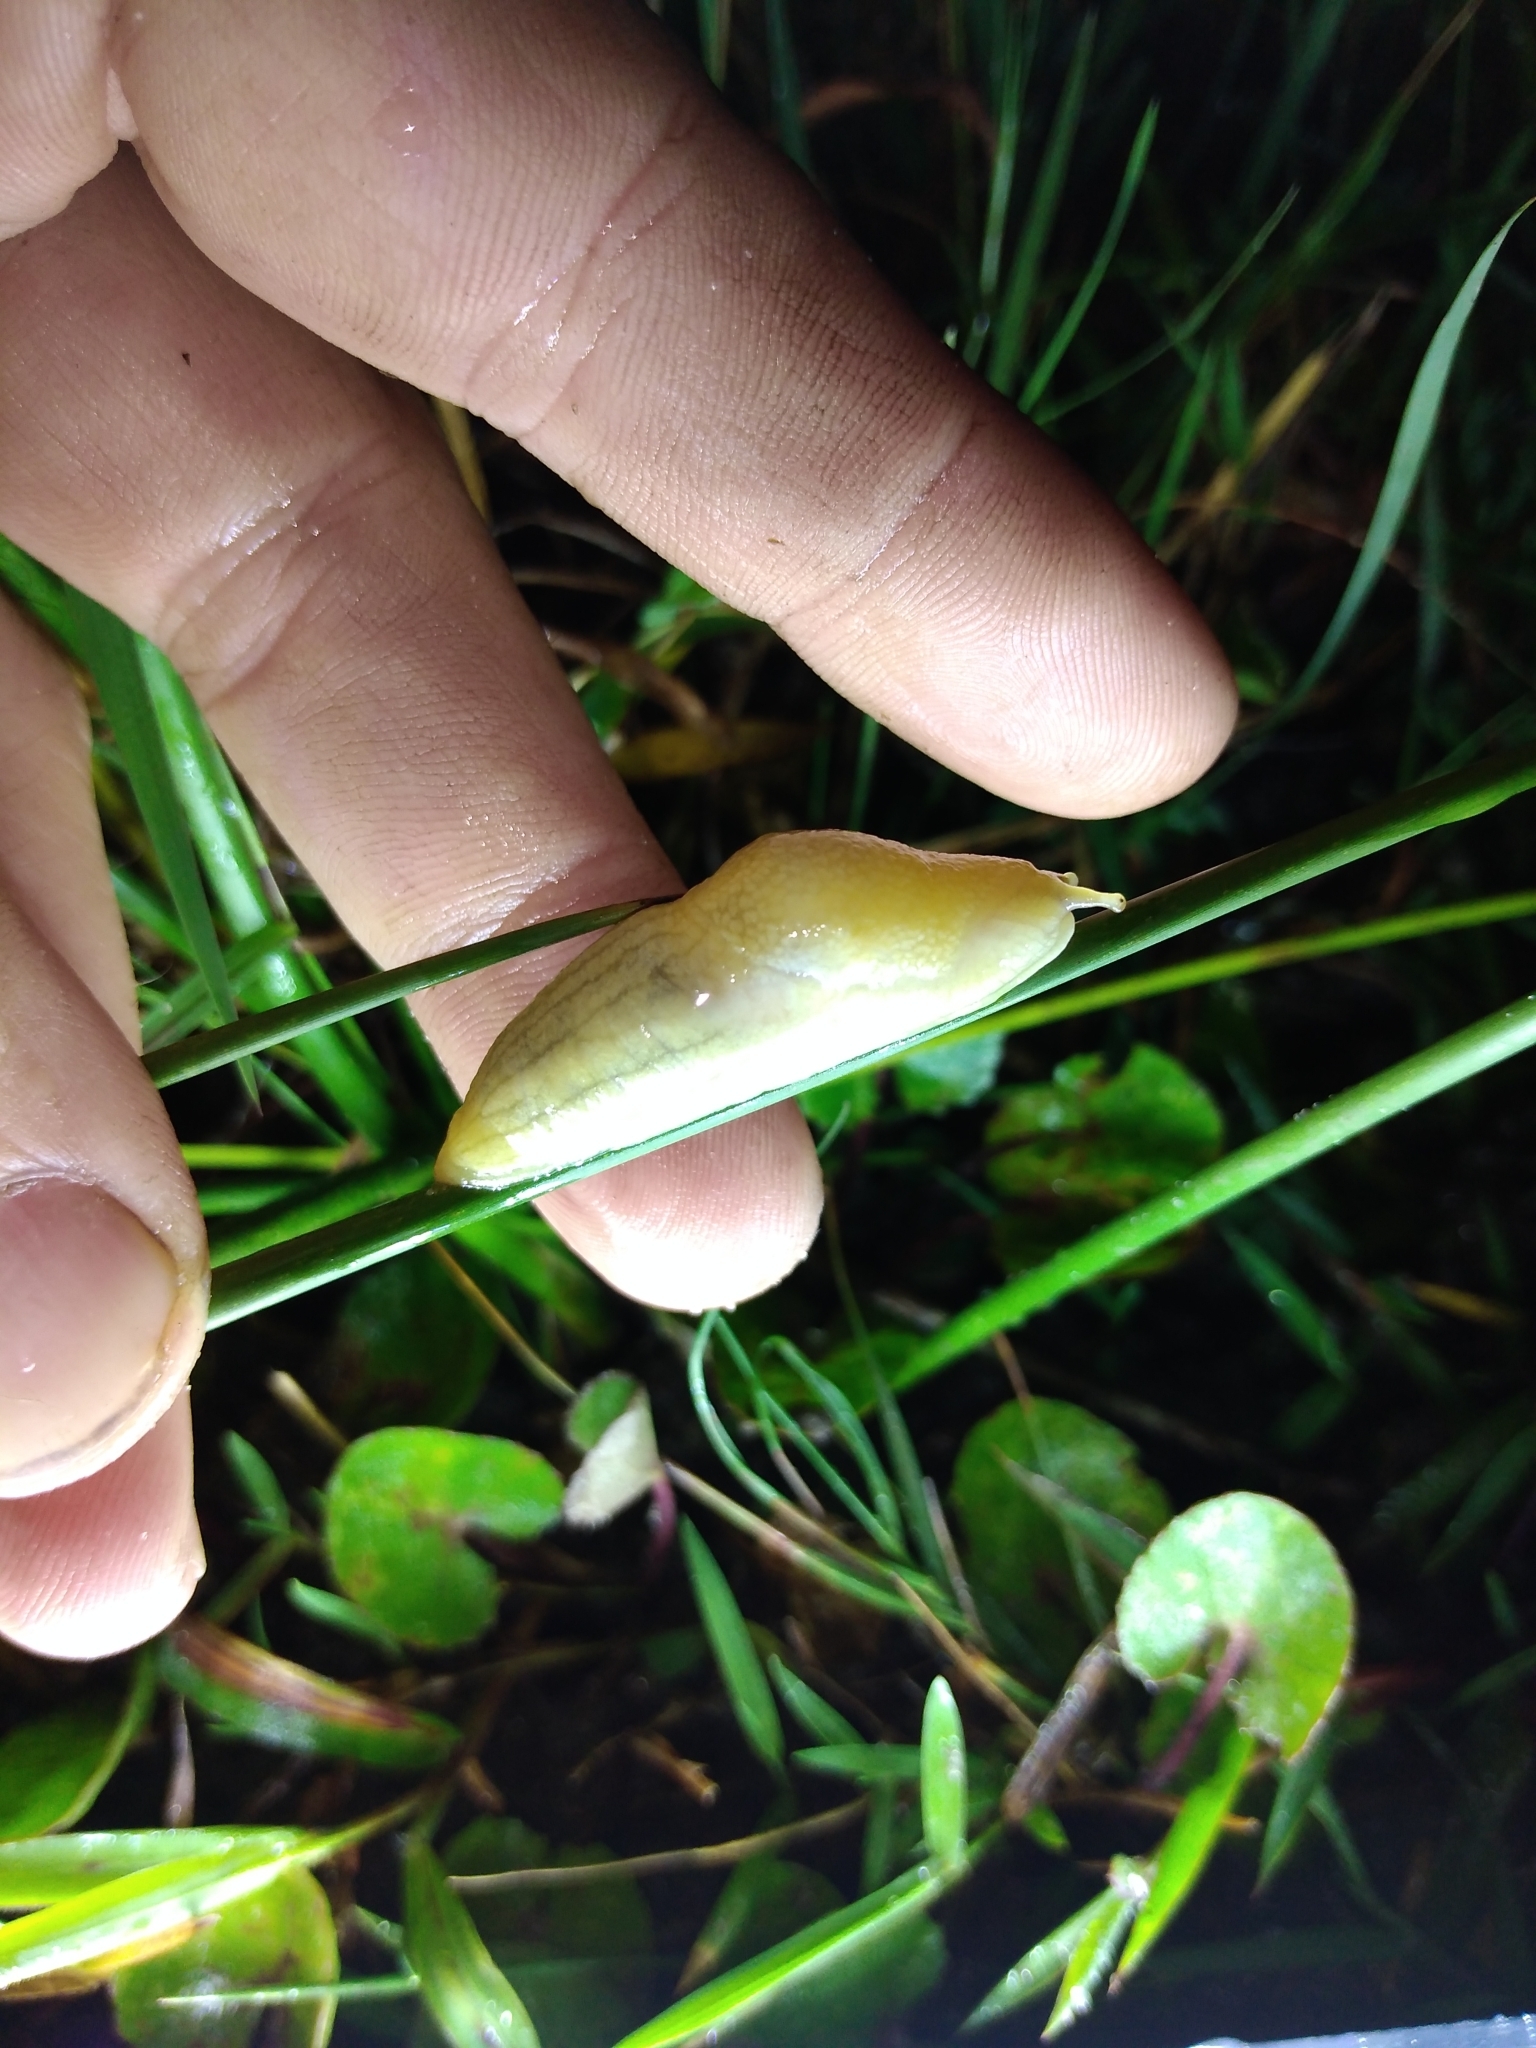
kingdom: Animalia
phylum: Mollusca
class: Gastropoda
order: Stylommatophora
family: Urocyclidae
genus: Elisolimax
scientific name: Elisolimax flavescens
